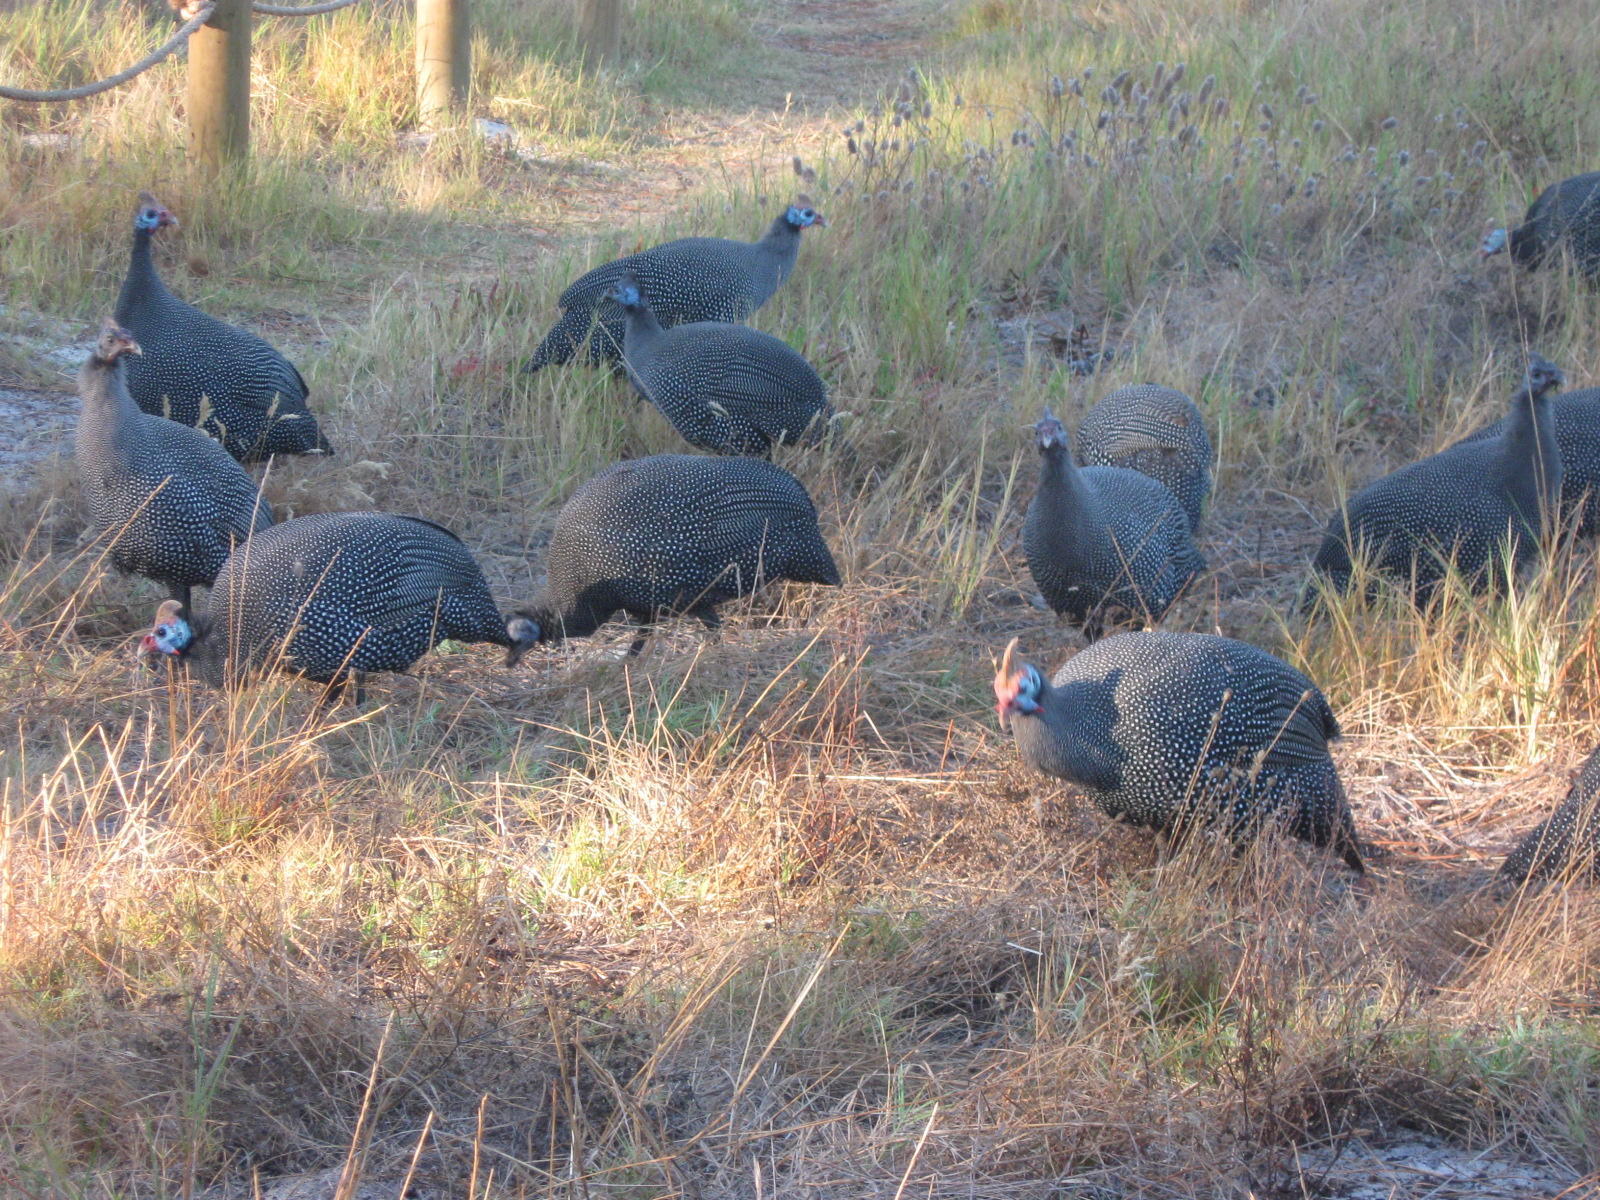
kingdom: Animalia
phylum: Chordata
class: Aves
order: Galliformes
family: Numididae
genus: Numida
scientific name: Numida meleagris
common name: Helmeted guineafowl
